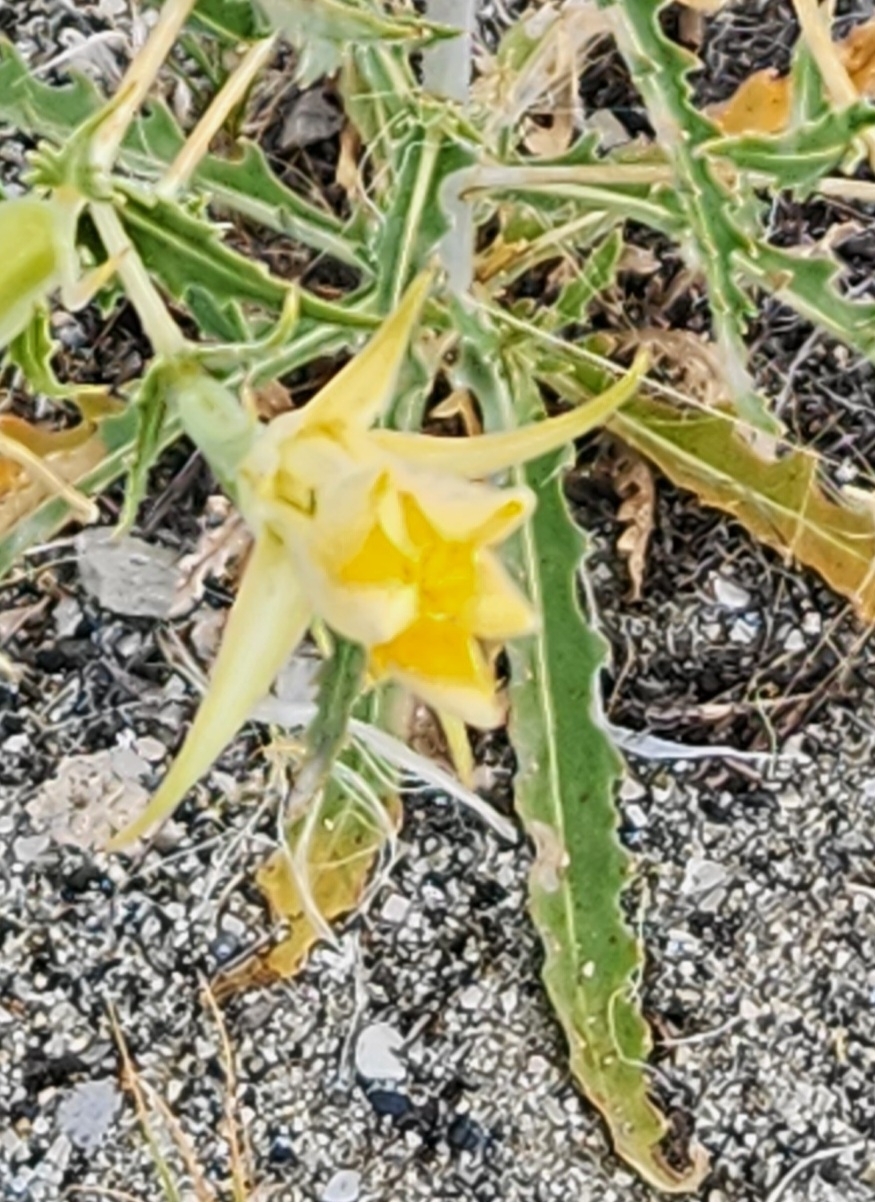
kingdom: Plantae
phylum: Tracheophyta
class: Magnoliopsida
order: Cornales
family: Loasaceae
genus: Mentzelia
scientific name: Mentzelia laevicaulis
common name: Smooth-stem blazingstar
